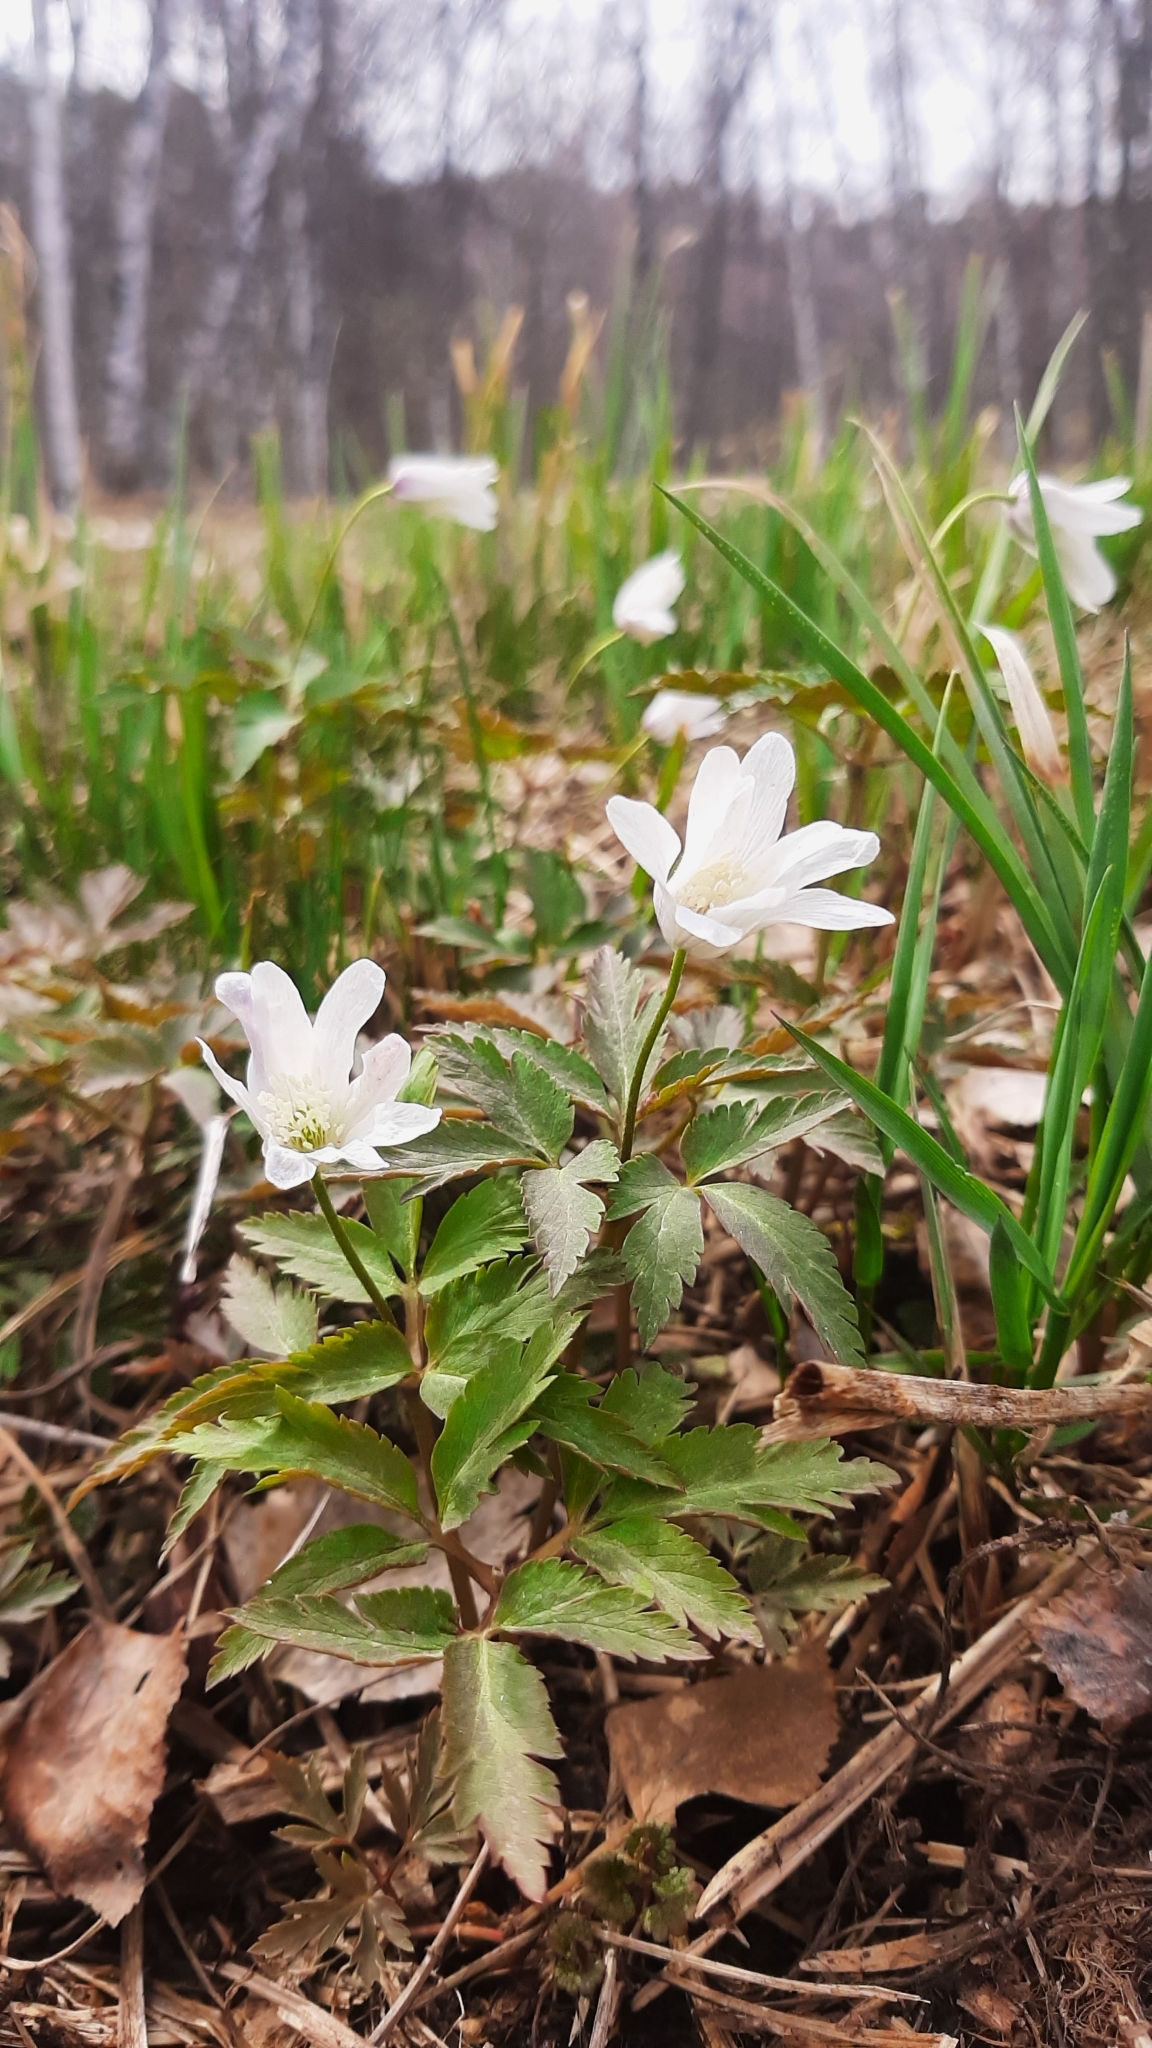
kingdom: Plantae
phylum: Tracheophyta
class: Magnoliopsida
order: Ranunculales
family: Ranunculaceae
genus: Anemone
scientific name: Anemone altaica
